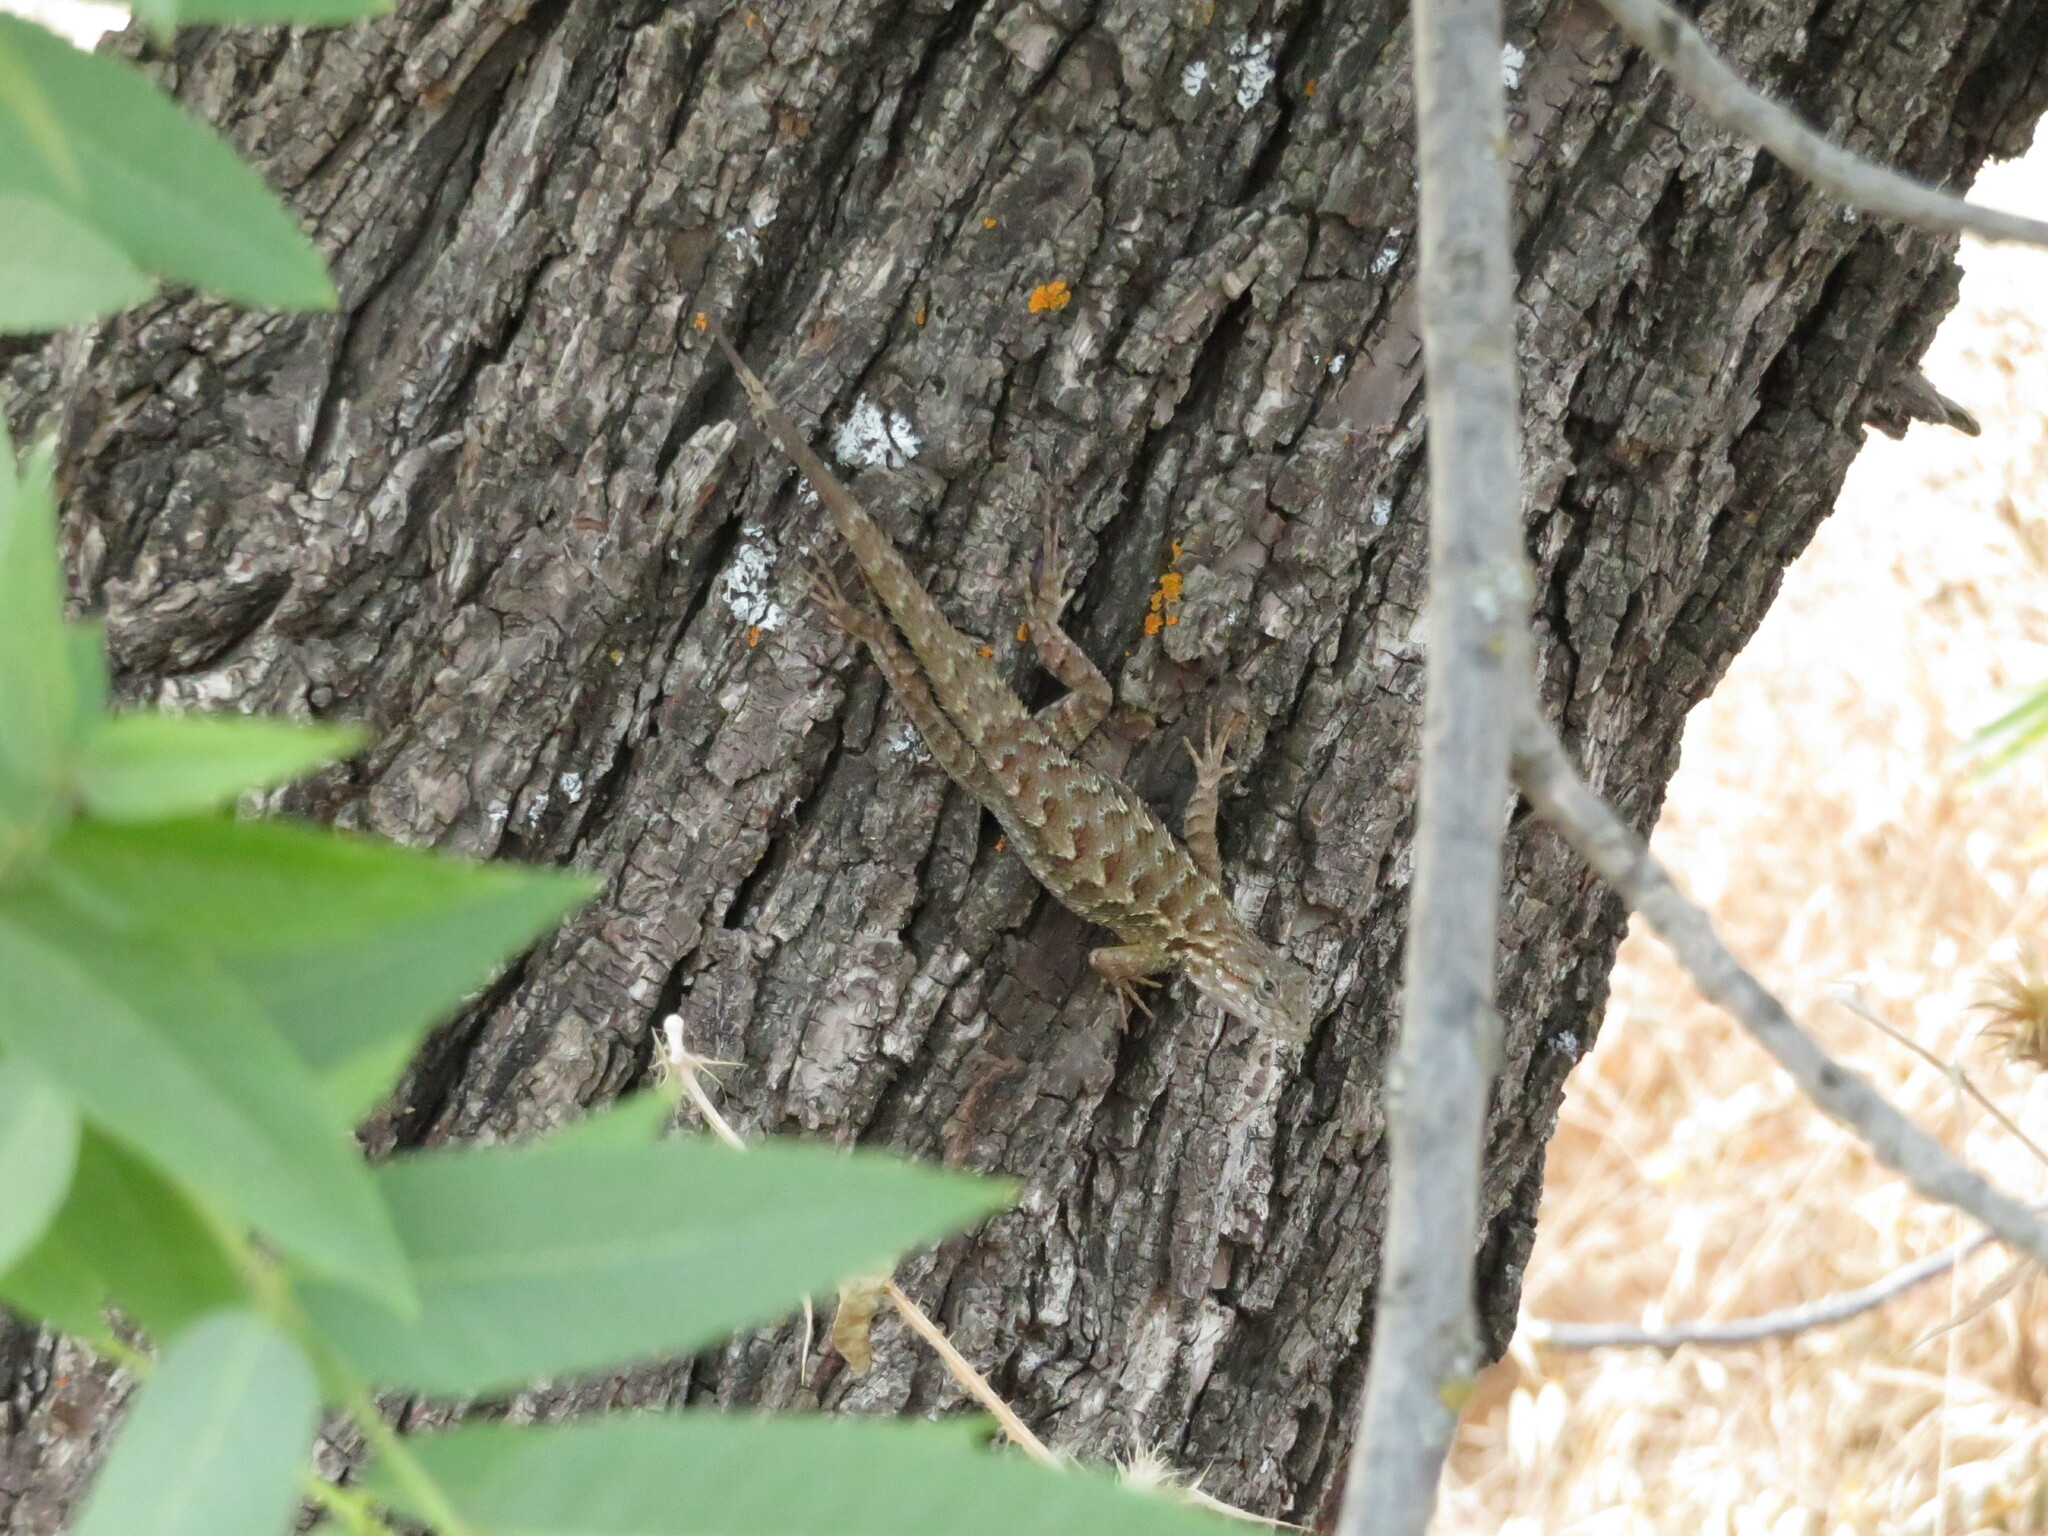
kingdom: Animalia
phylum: Chordata
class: Squamata
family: Phrynosomatidae
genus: Sceloporus
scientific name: Sceloporus occidentalis
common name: Western fence lizard
